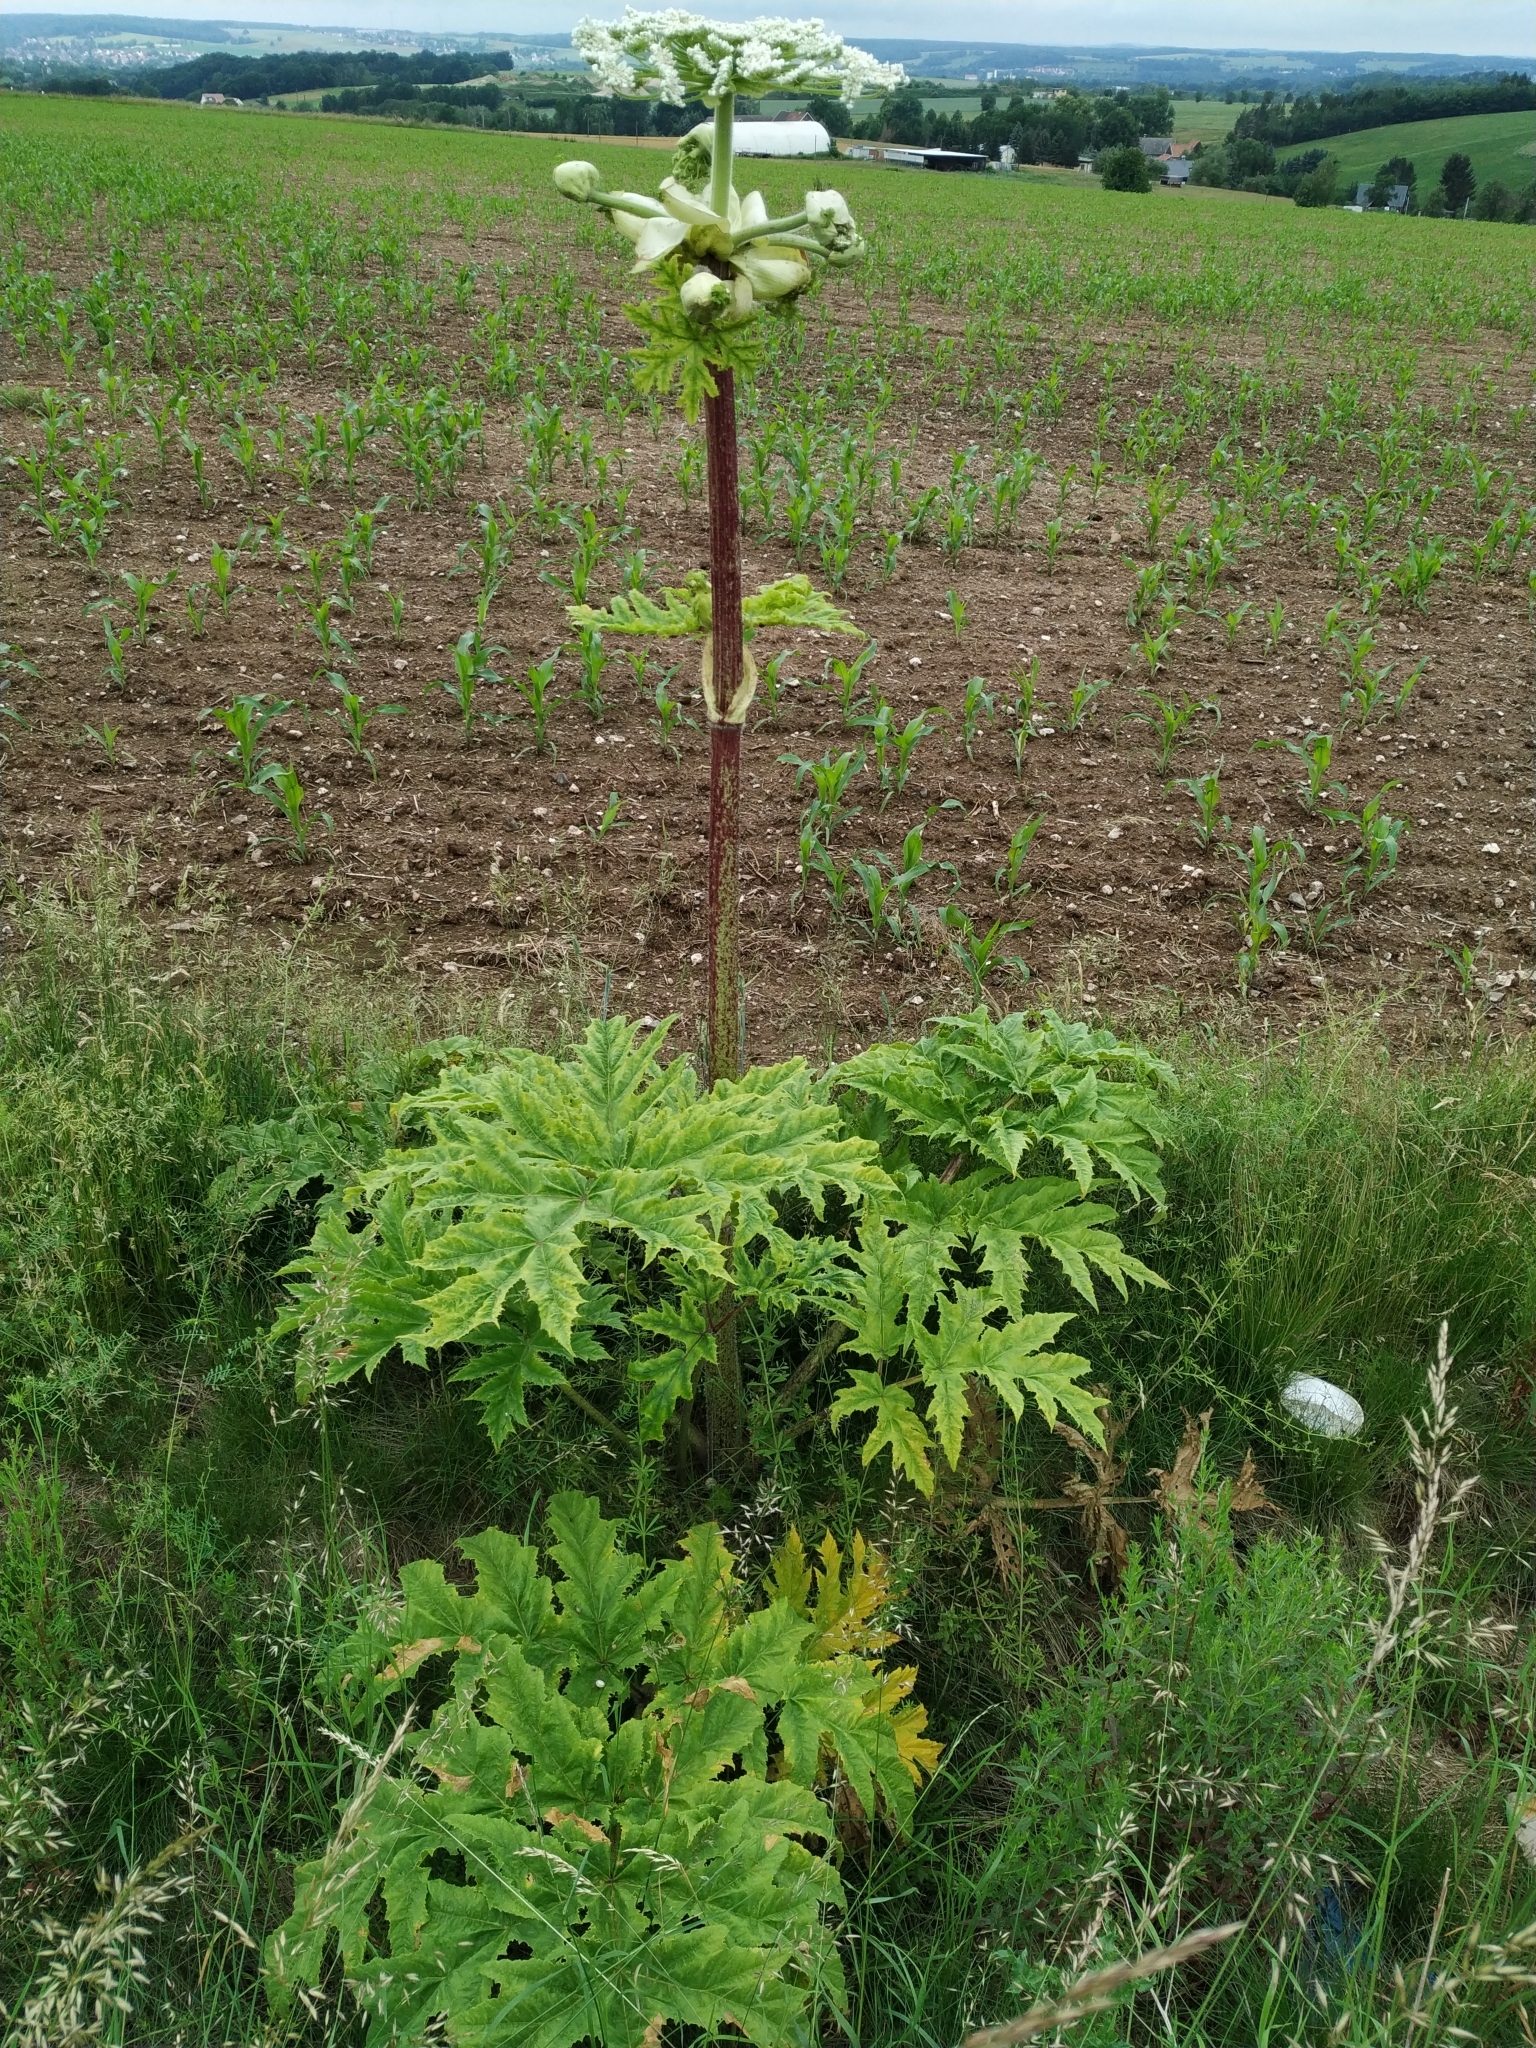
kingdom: Plantae
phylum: Tracheophyta
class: Magnoliopsida
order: Apiales
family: Apiaceae
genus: Heracleum
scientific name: Heracleum mantegazzianum
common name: Giant hogweed
